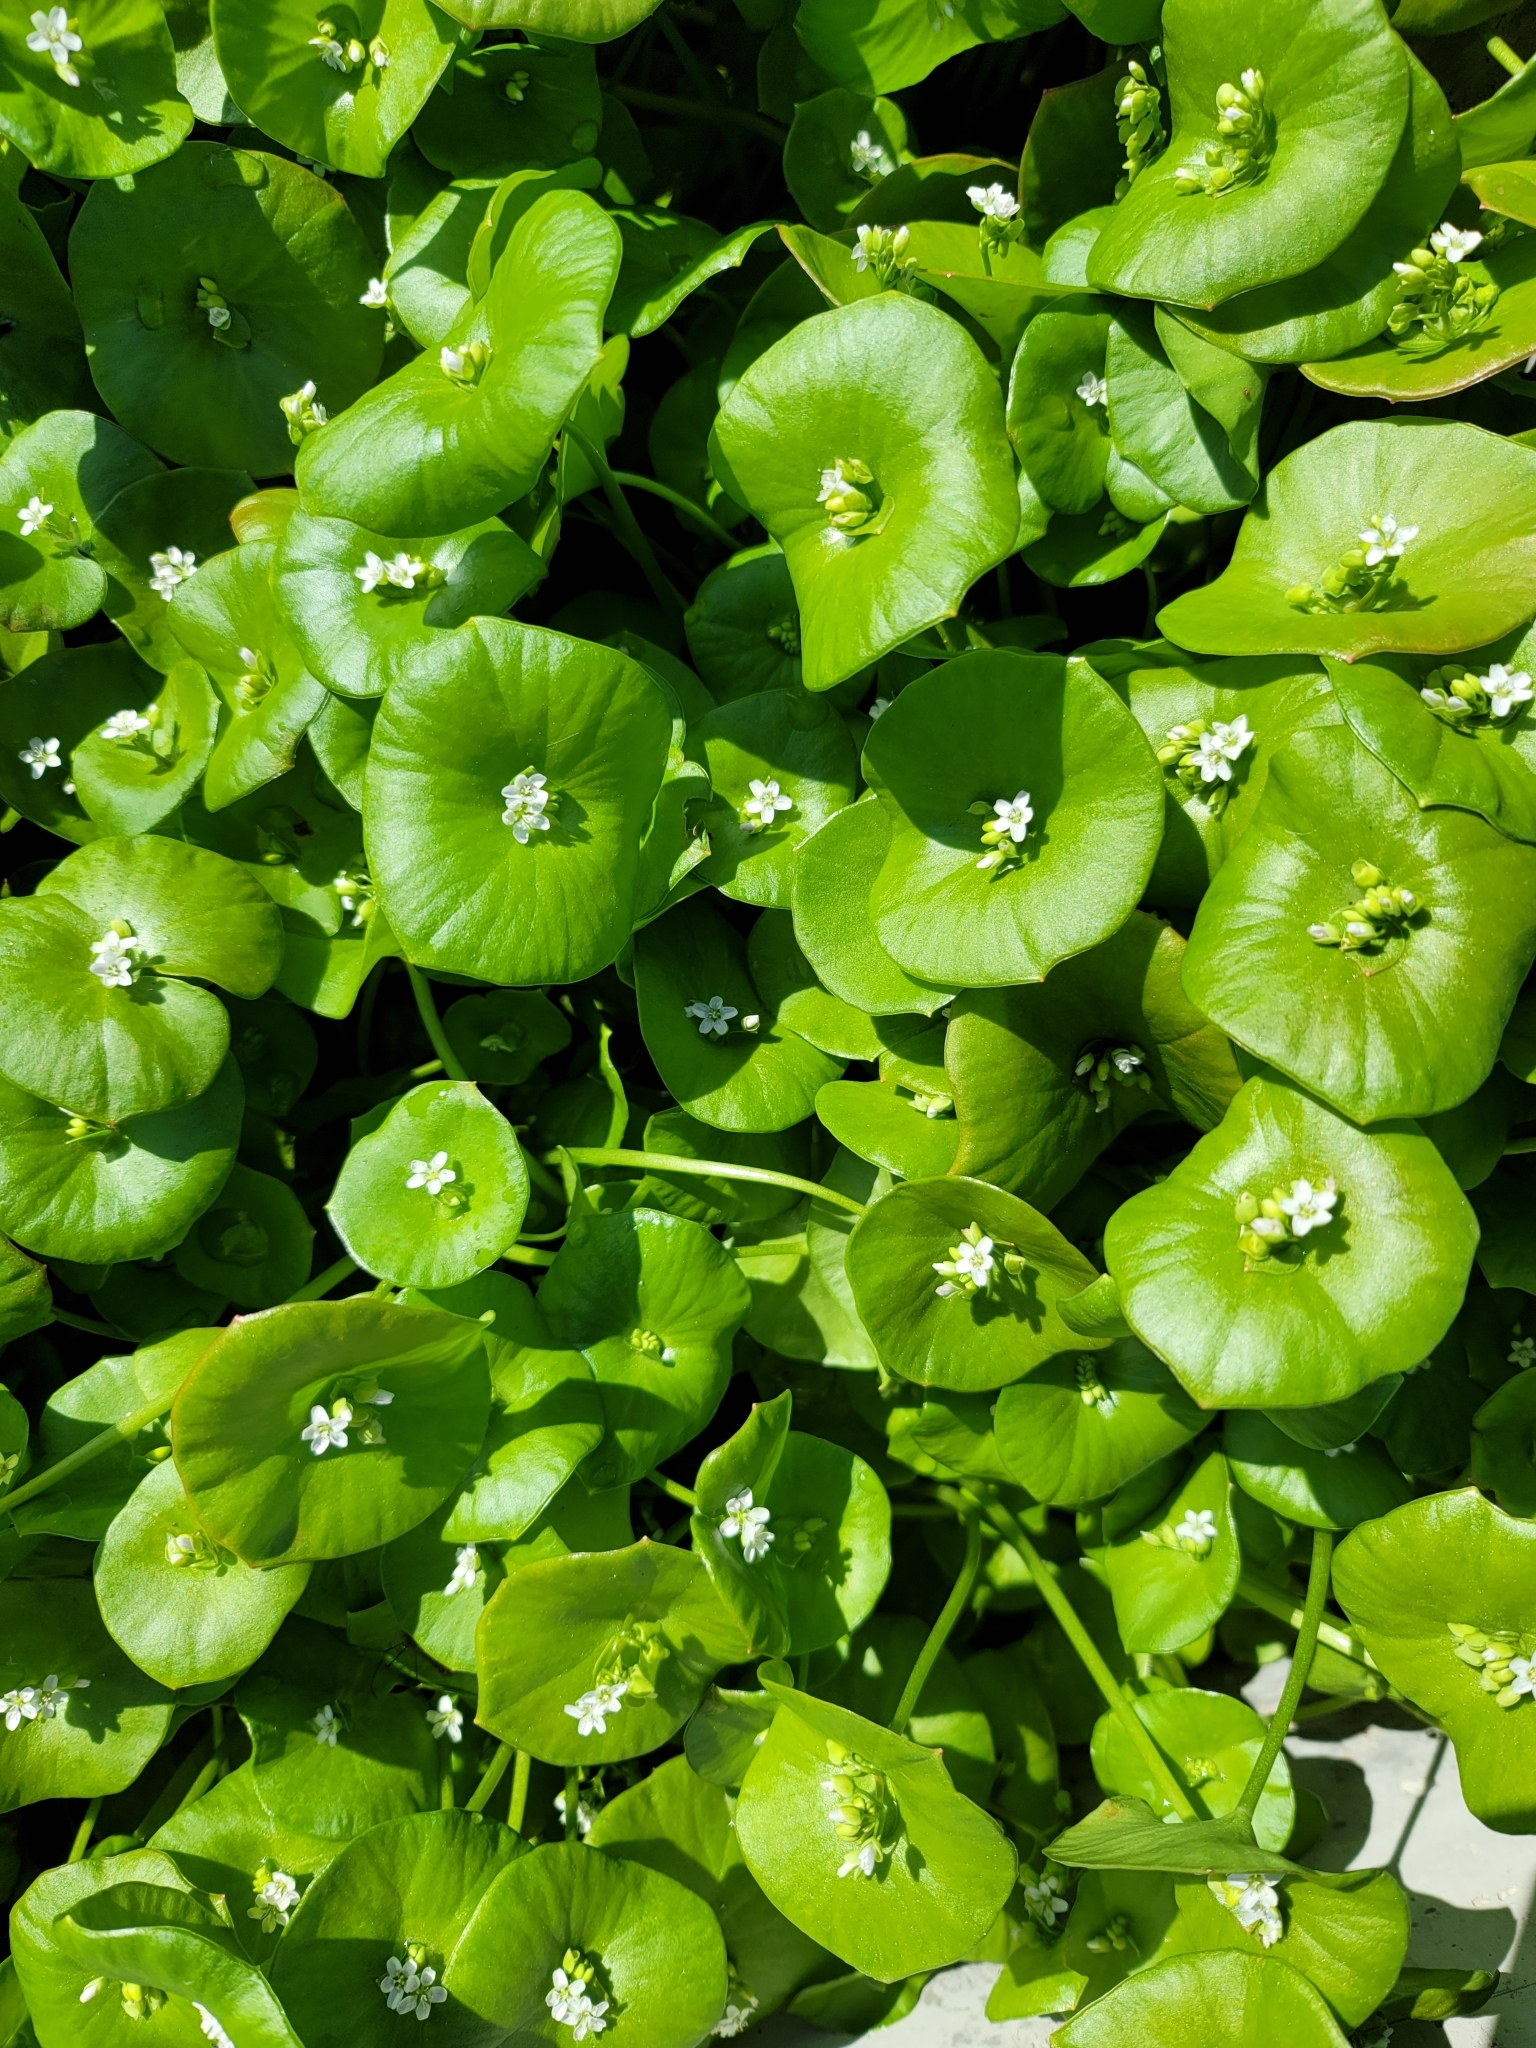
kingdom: Plantae
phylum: Tracheophyta
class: Magnoliopsida
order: Caryophyllales
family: Montiaceae
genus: Claytonia
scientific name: Claytonia perfoliata
